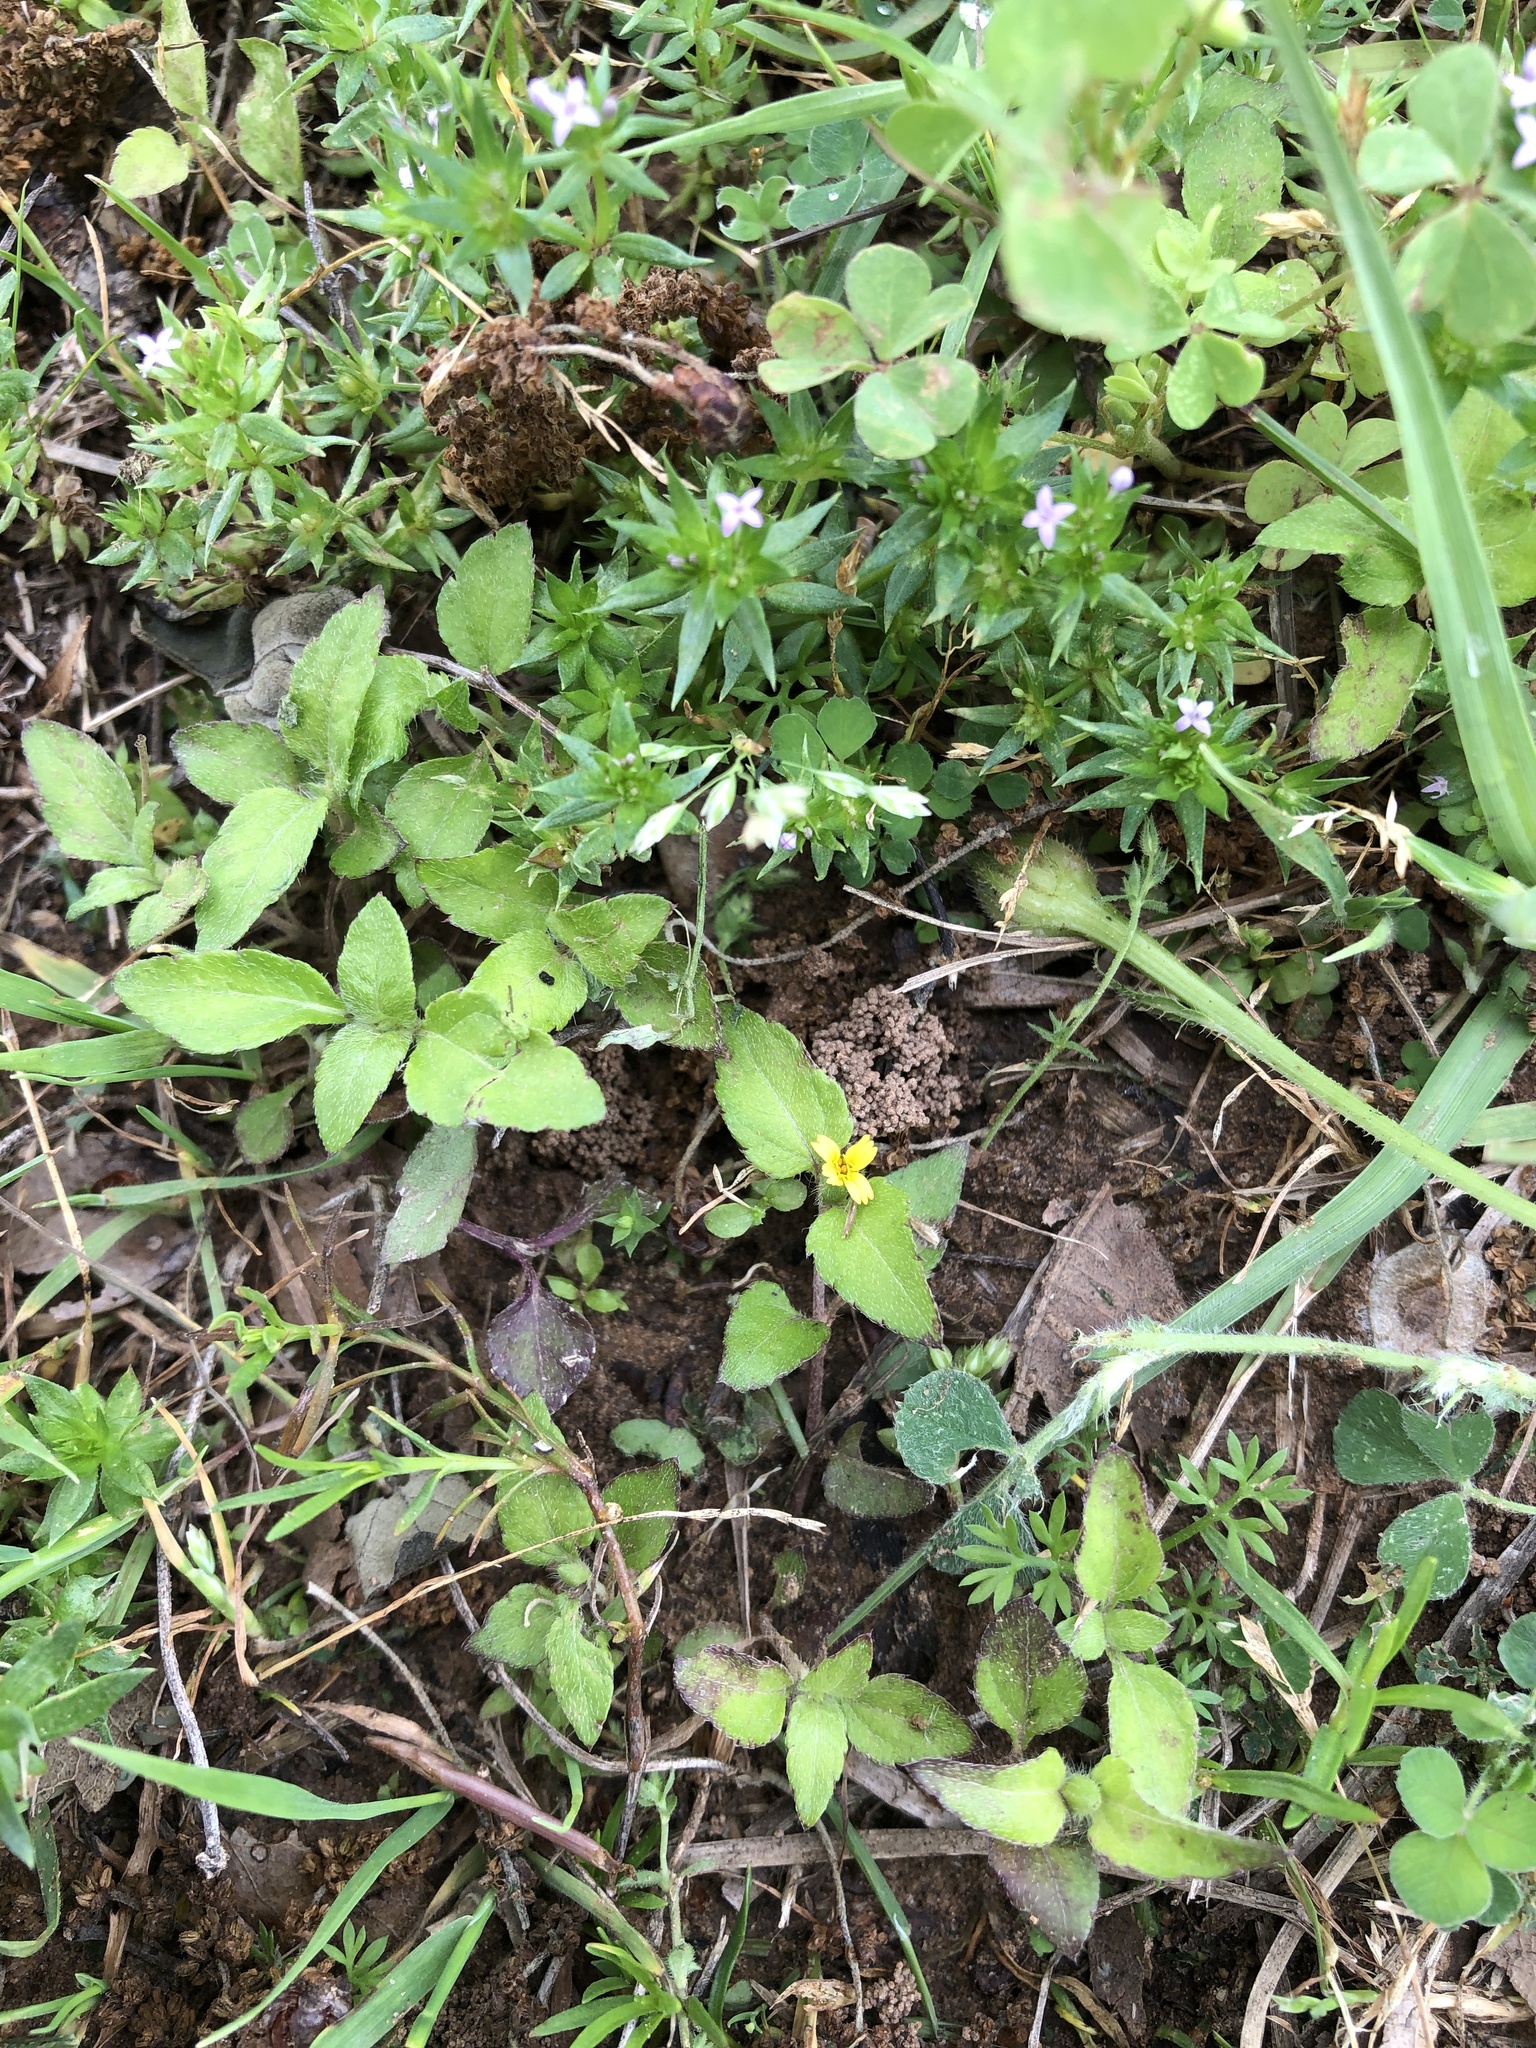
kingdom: Plantae
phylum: Tracheophyta
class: Magnoliopsida
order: Asterales
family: Asteraceae
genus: Calyptocarpus
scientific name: Calyptocarpus vialis
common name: Straggler daisy
